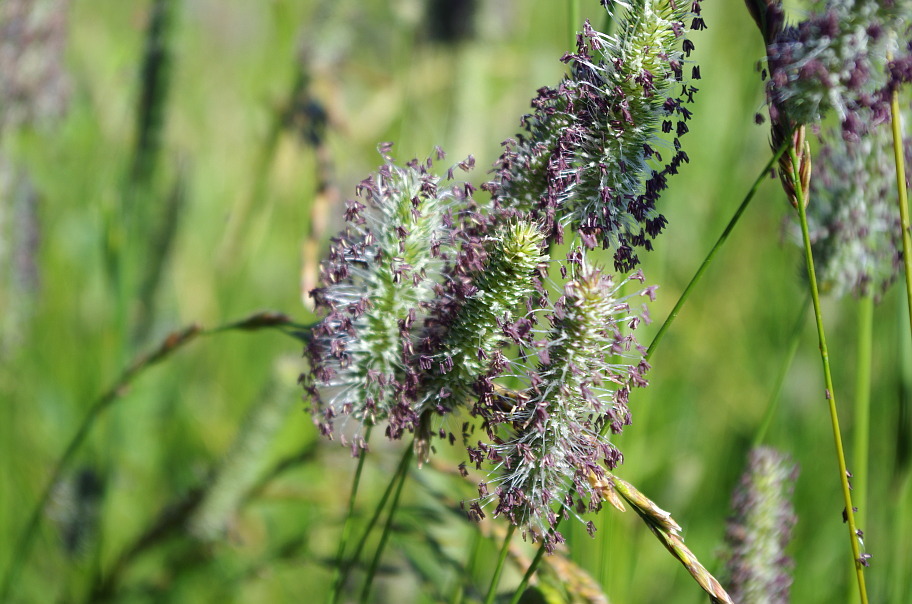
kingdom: Plantae
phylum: Tracheophyta
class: Liliopsida
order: Poales
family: Poaceae
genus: Phleum
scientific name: Phleum pratense
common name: Timothy grass
